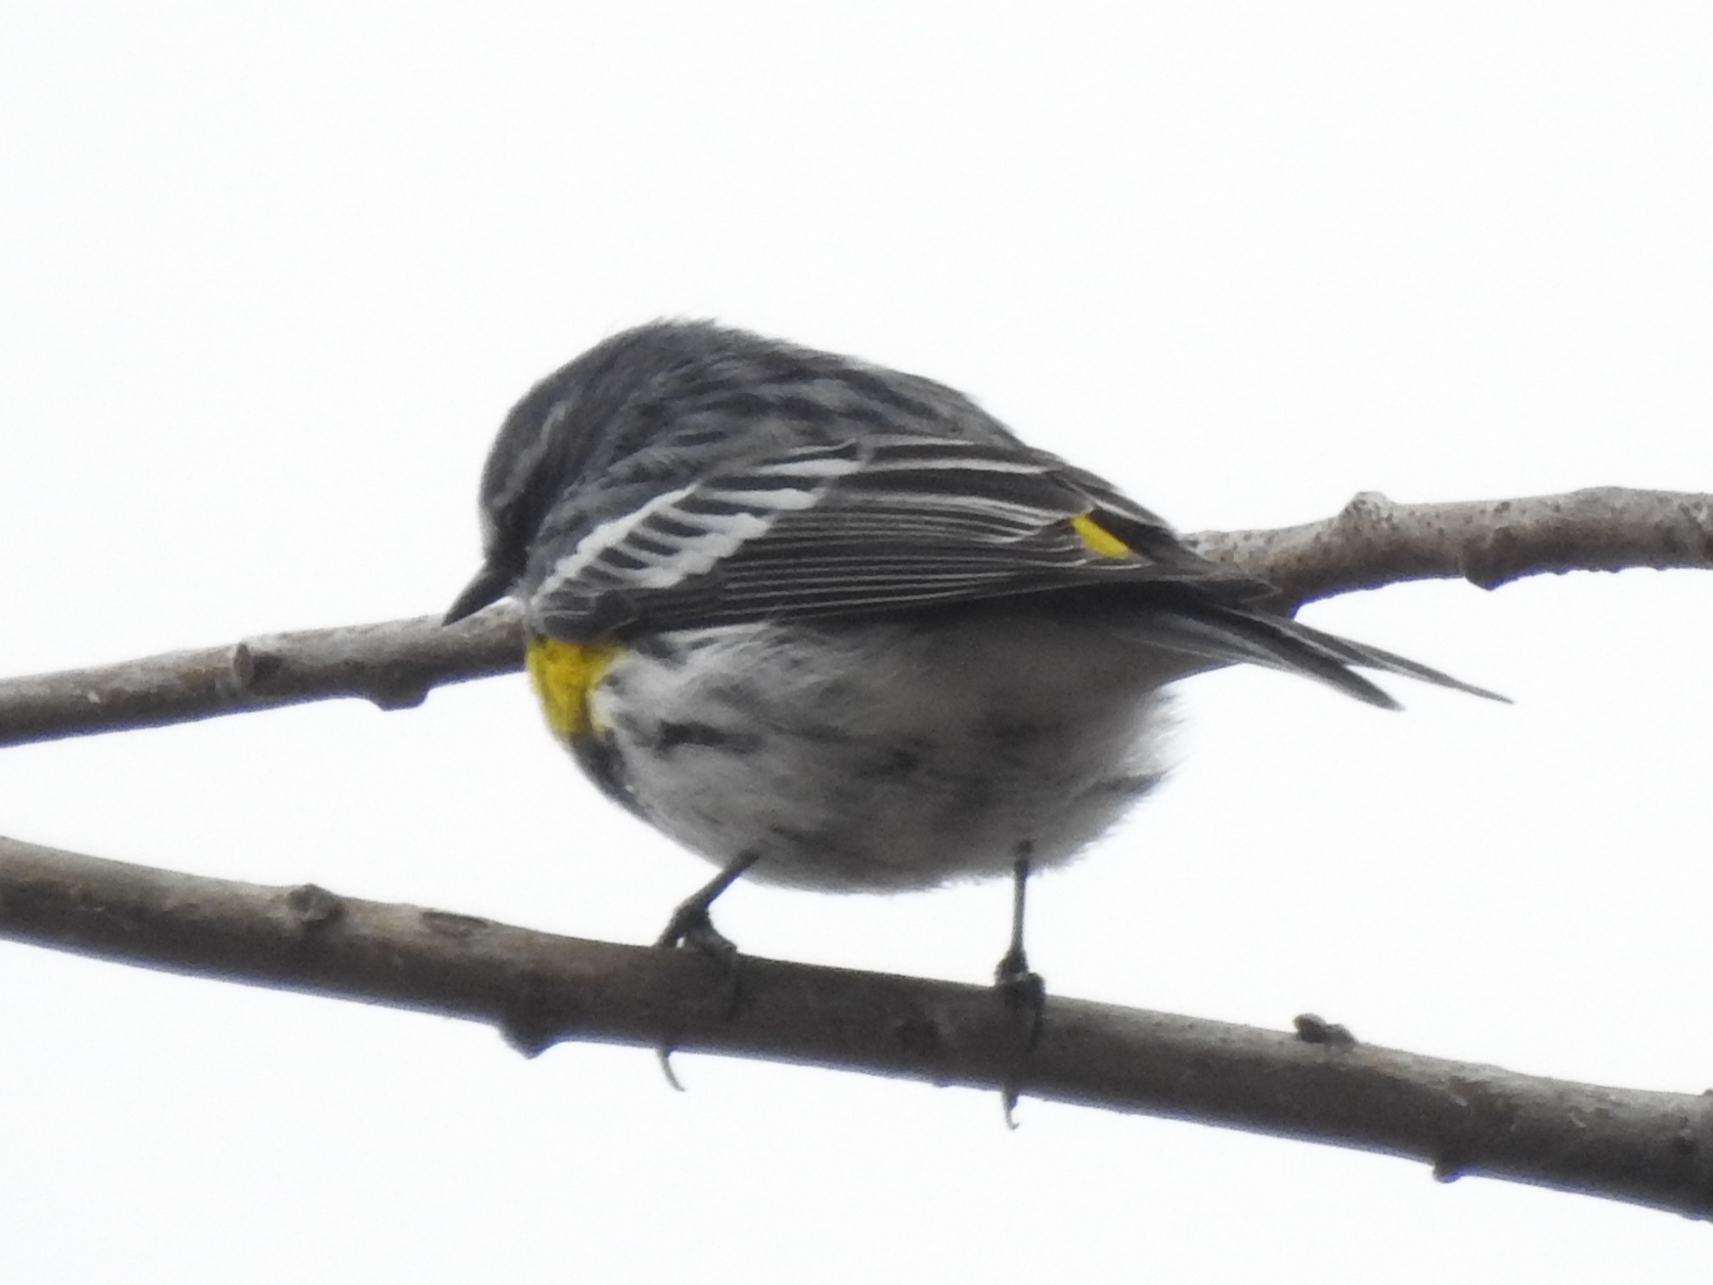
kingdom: Animalia
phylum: Chordata
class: Aves
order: Passeriformes
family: Parulidae
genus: Setophaga
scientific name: Setophaga coronata
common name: Myrtle warbler
